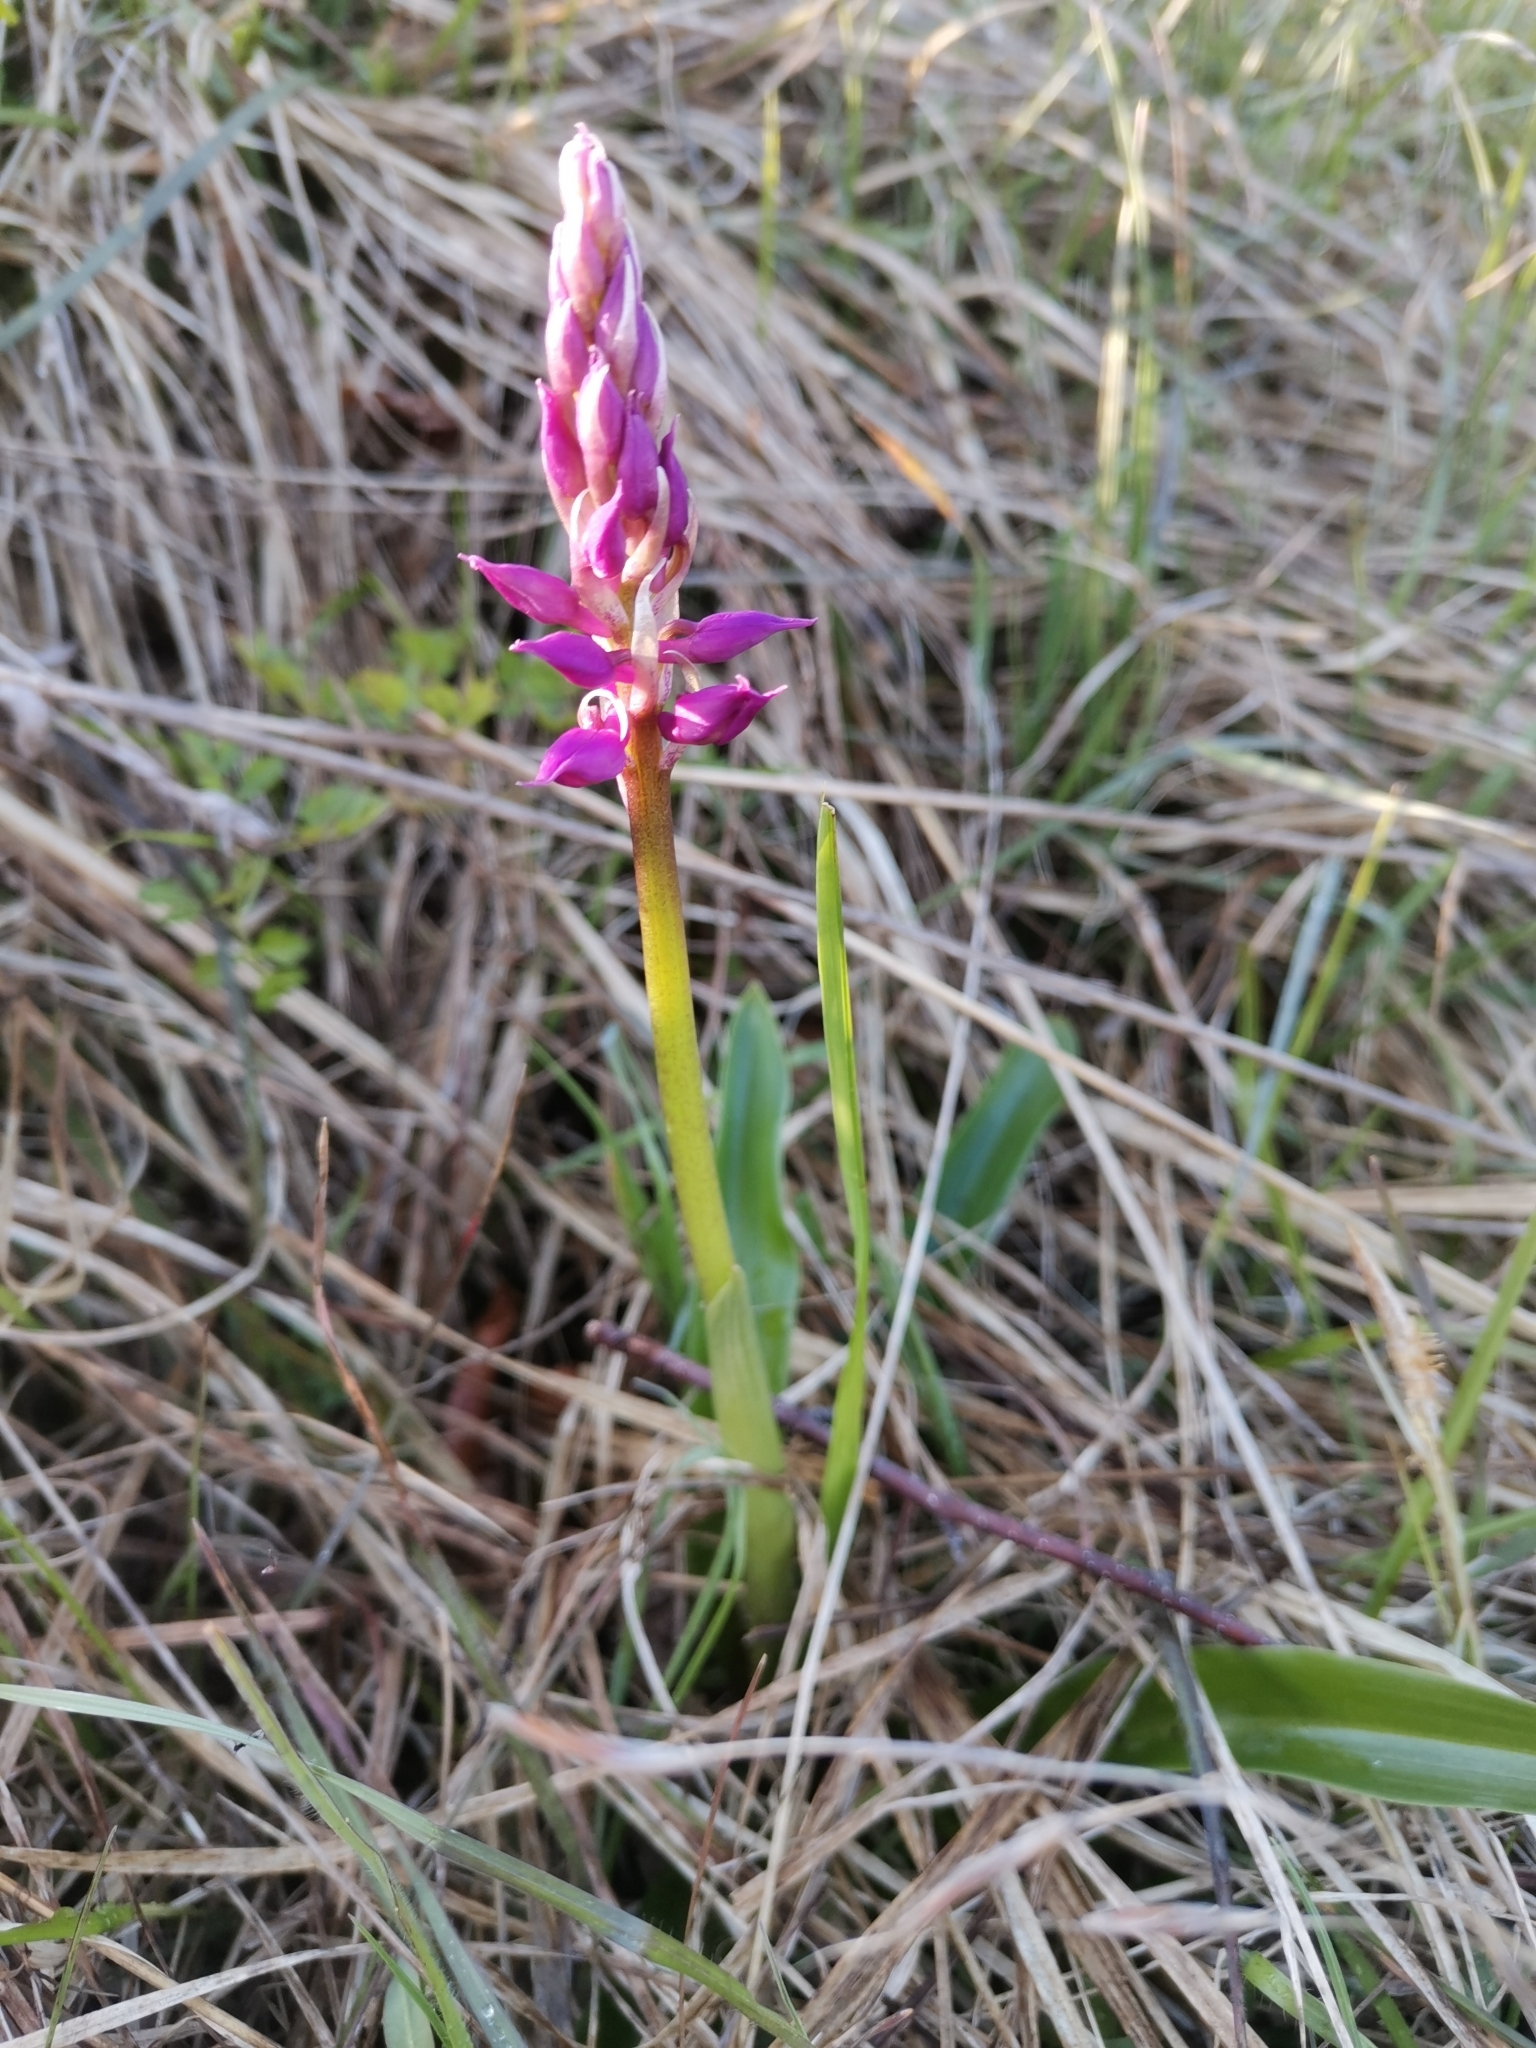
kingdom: Plantae
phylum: Tracheophyta
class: Liliopsida
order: Asparagales
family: Orchidaceae
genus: Orchis
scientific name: Orchis mascula
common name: Early-purple orchid
